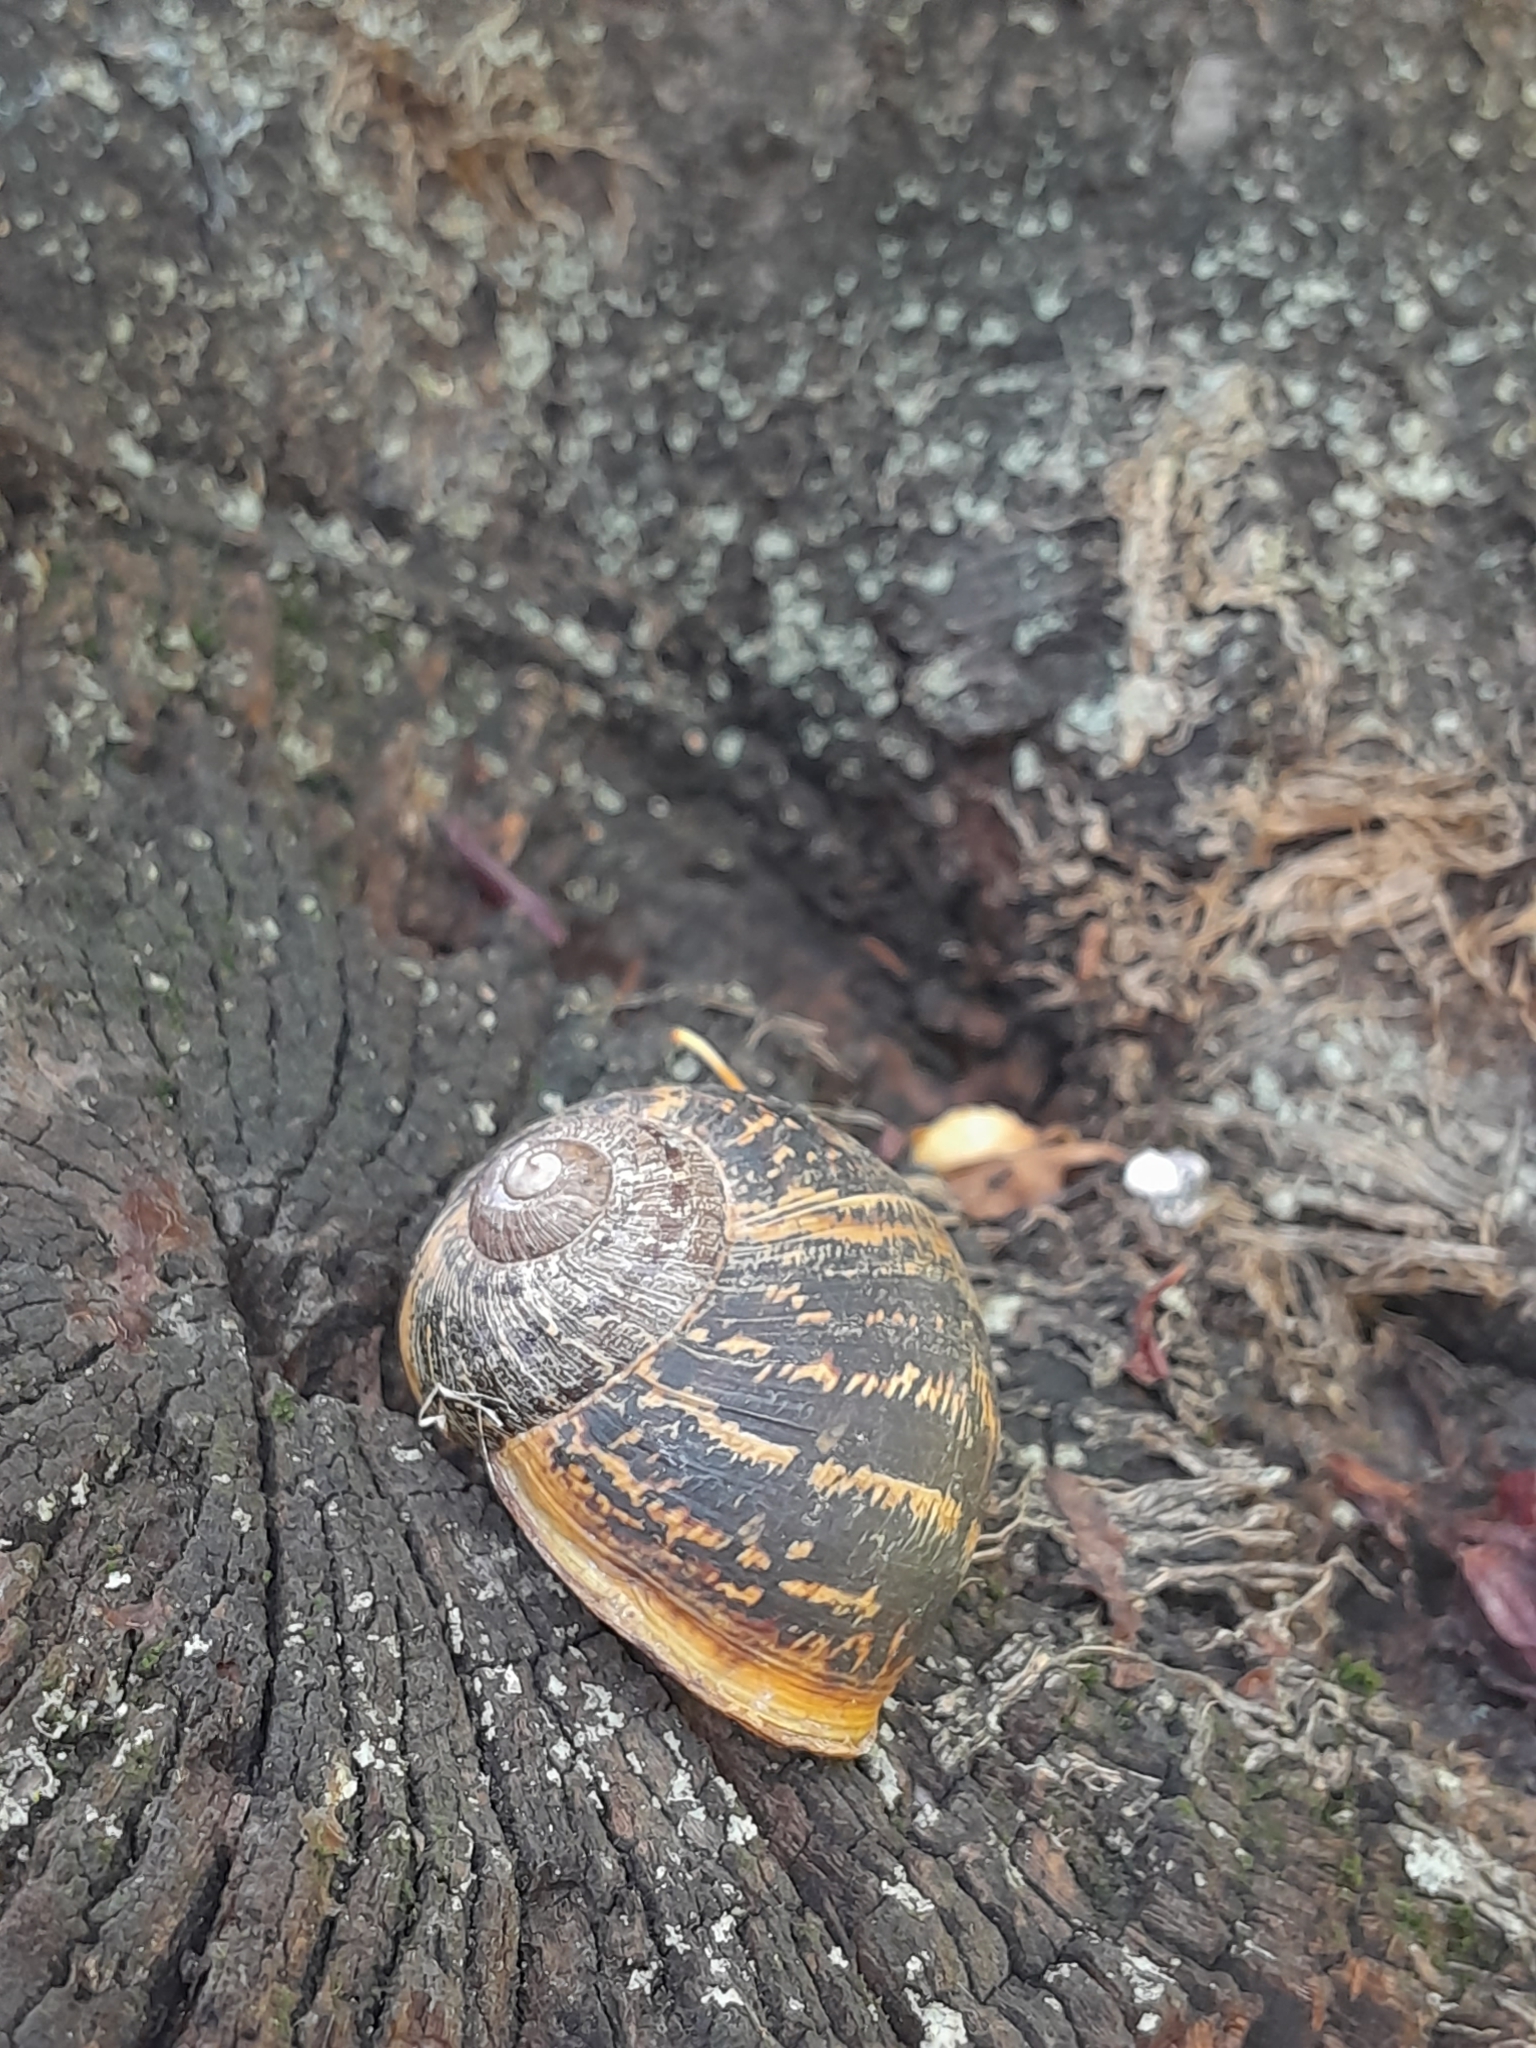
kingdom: Animalia
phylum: Mollusca
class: Gastropoda
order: Stylommatophora
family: Helicidae
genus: Cornu
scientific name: Cornu aspersum
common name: Brown garden snail
